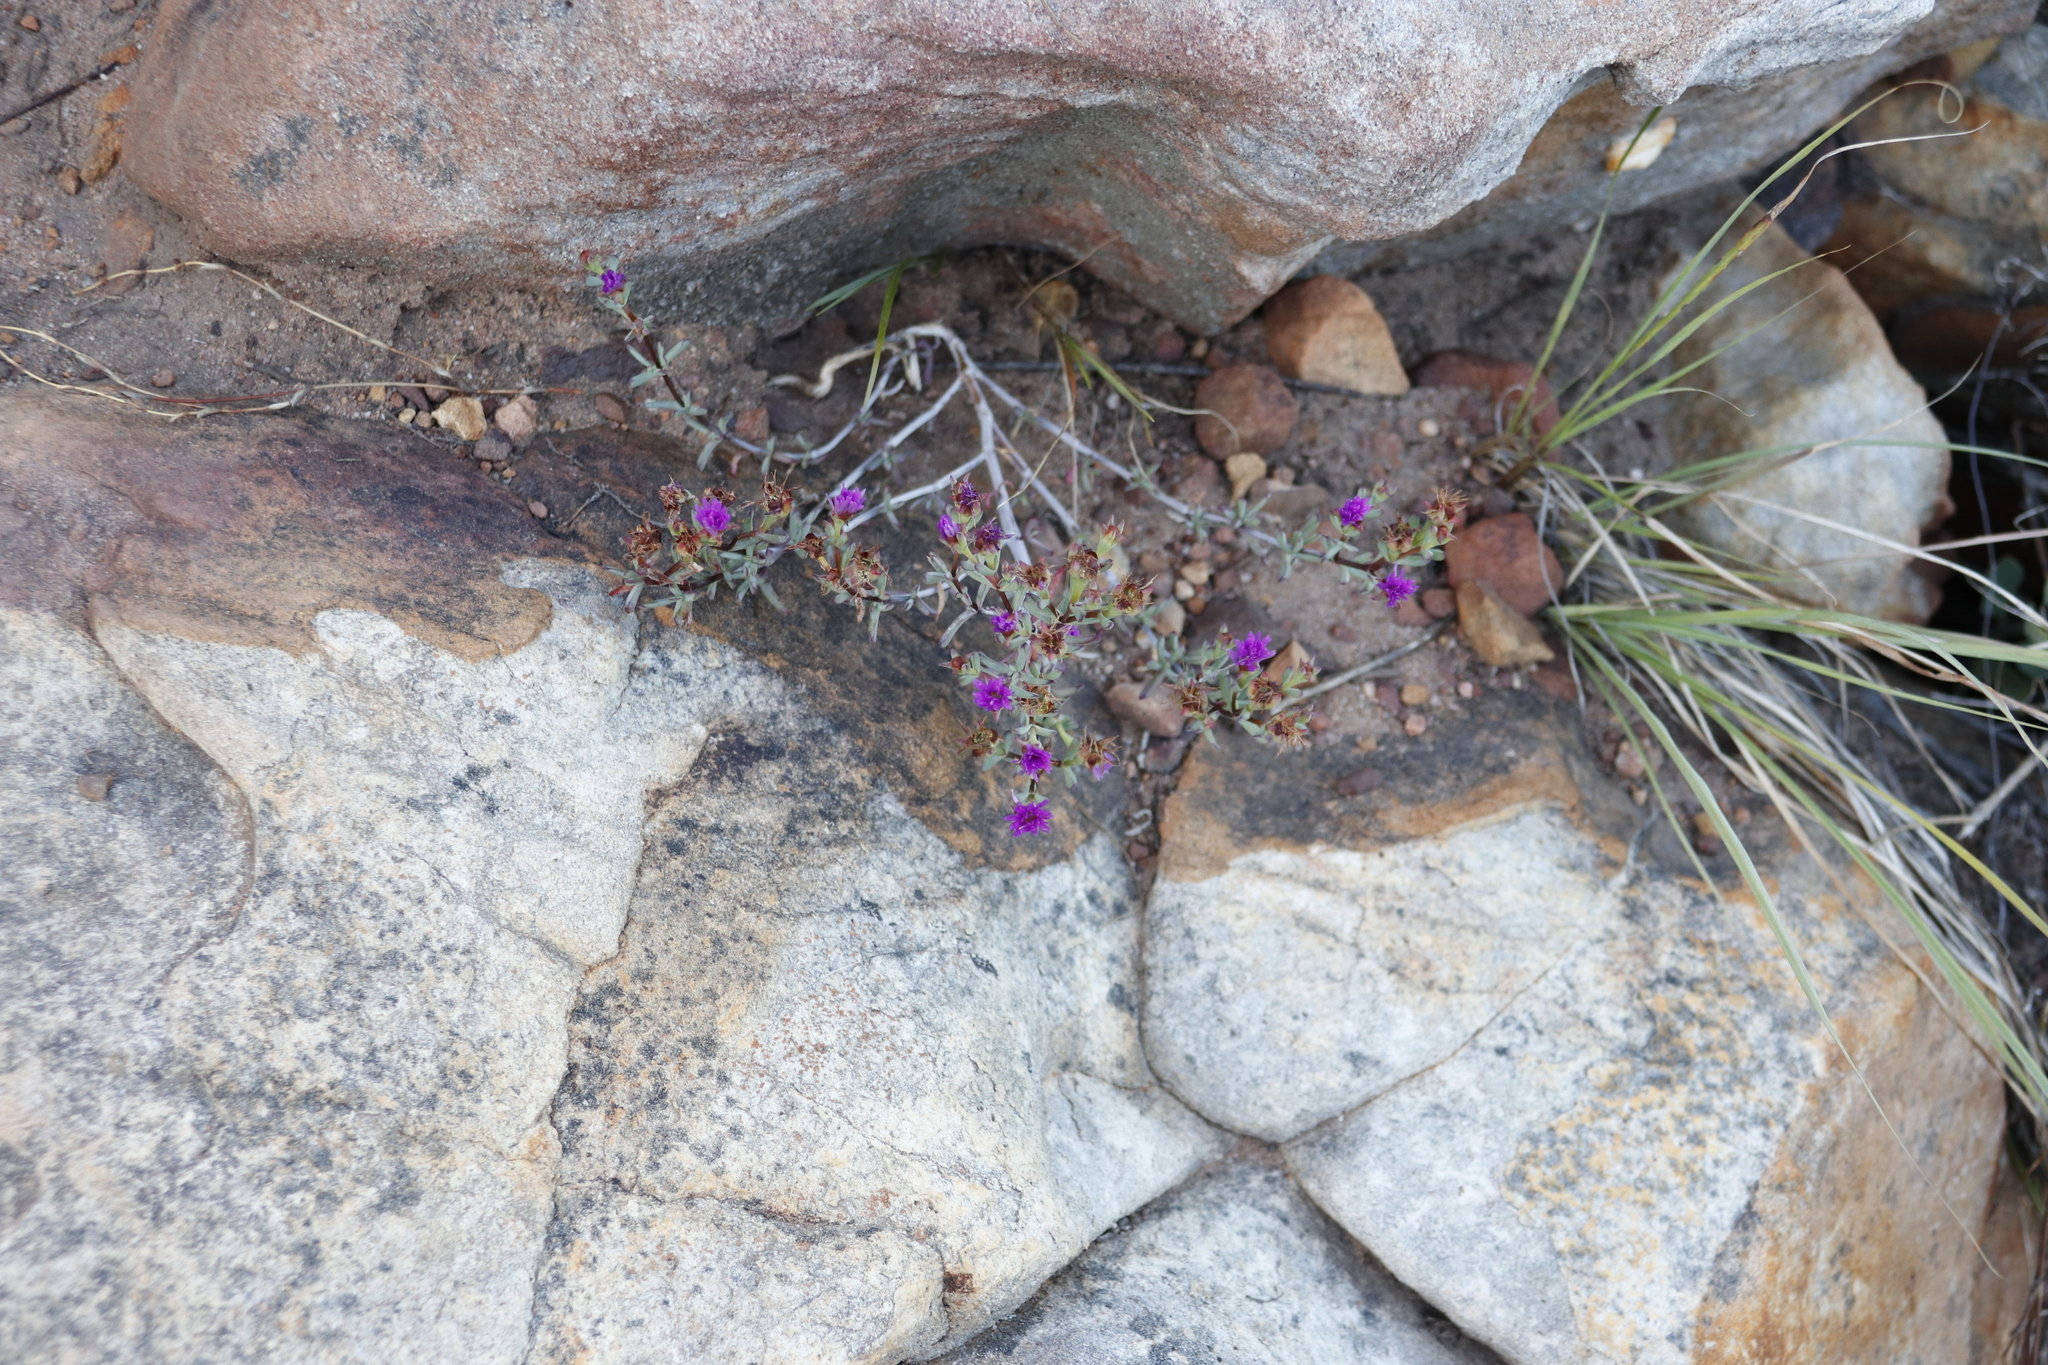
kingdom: Plantae
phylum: Tracheophyta
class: Magnoliopsida
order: Caryophyllales
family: Aizoaceae
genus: Lampranthus
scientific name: Lampranthus glomeratus
